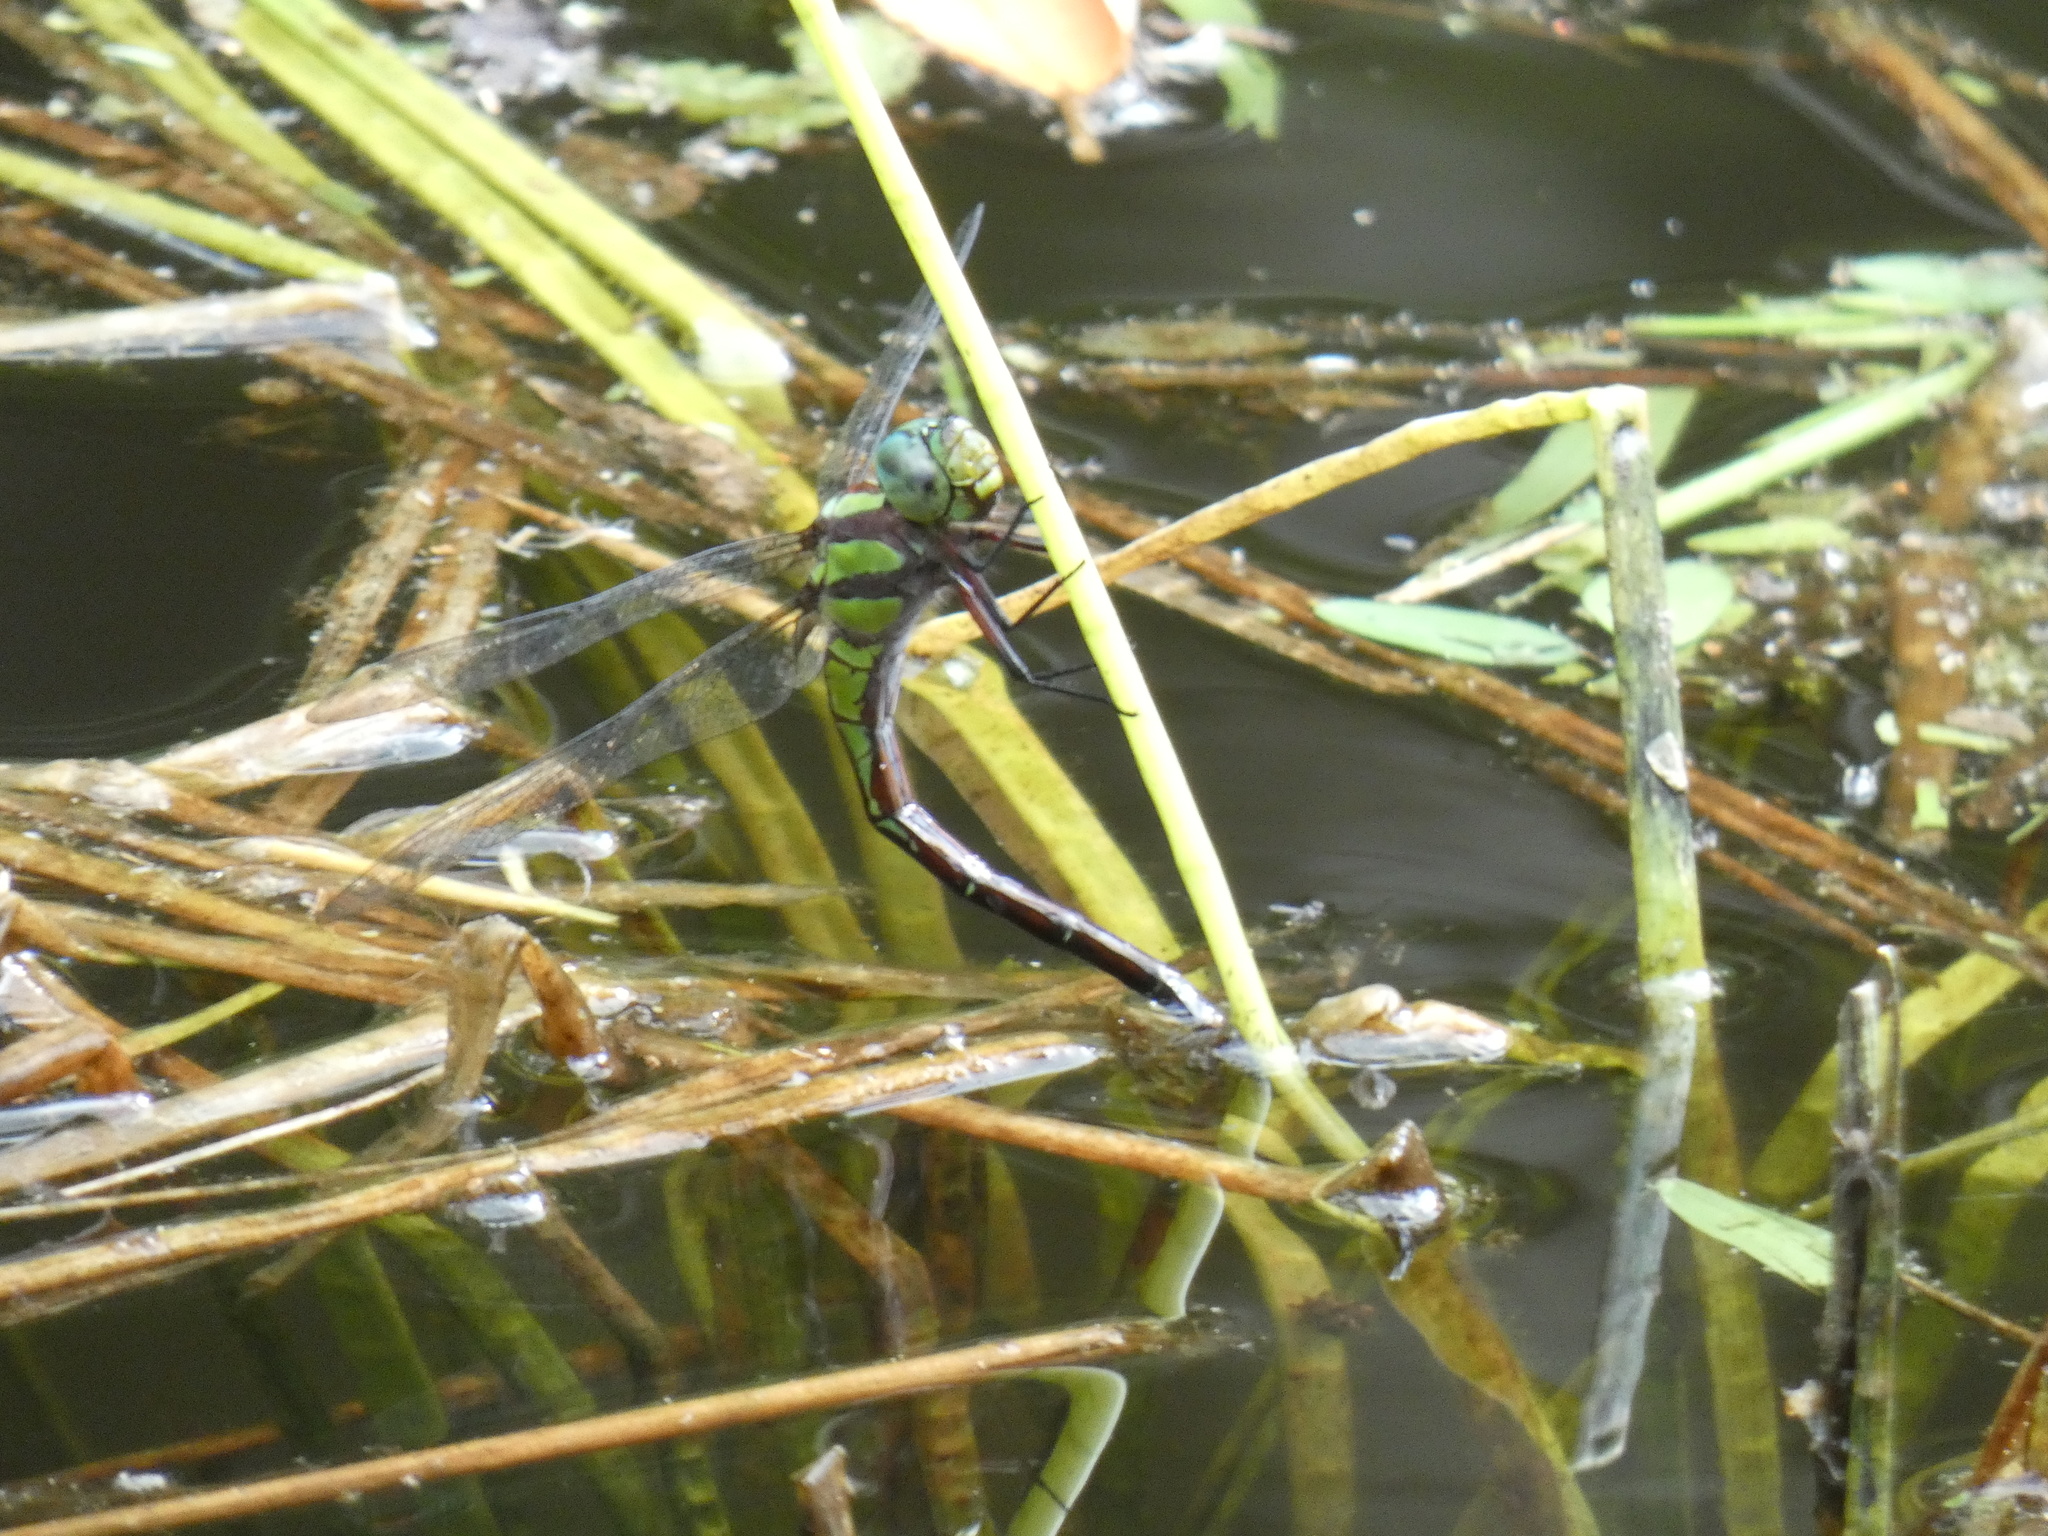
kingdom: Animalia
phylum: Arthropoda
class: Insecta
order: Odonata
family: Aeshnidae
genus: Remartinia
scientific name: Remartinia luteipennis
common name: Malachite darner
